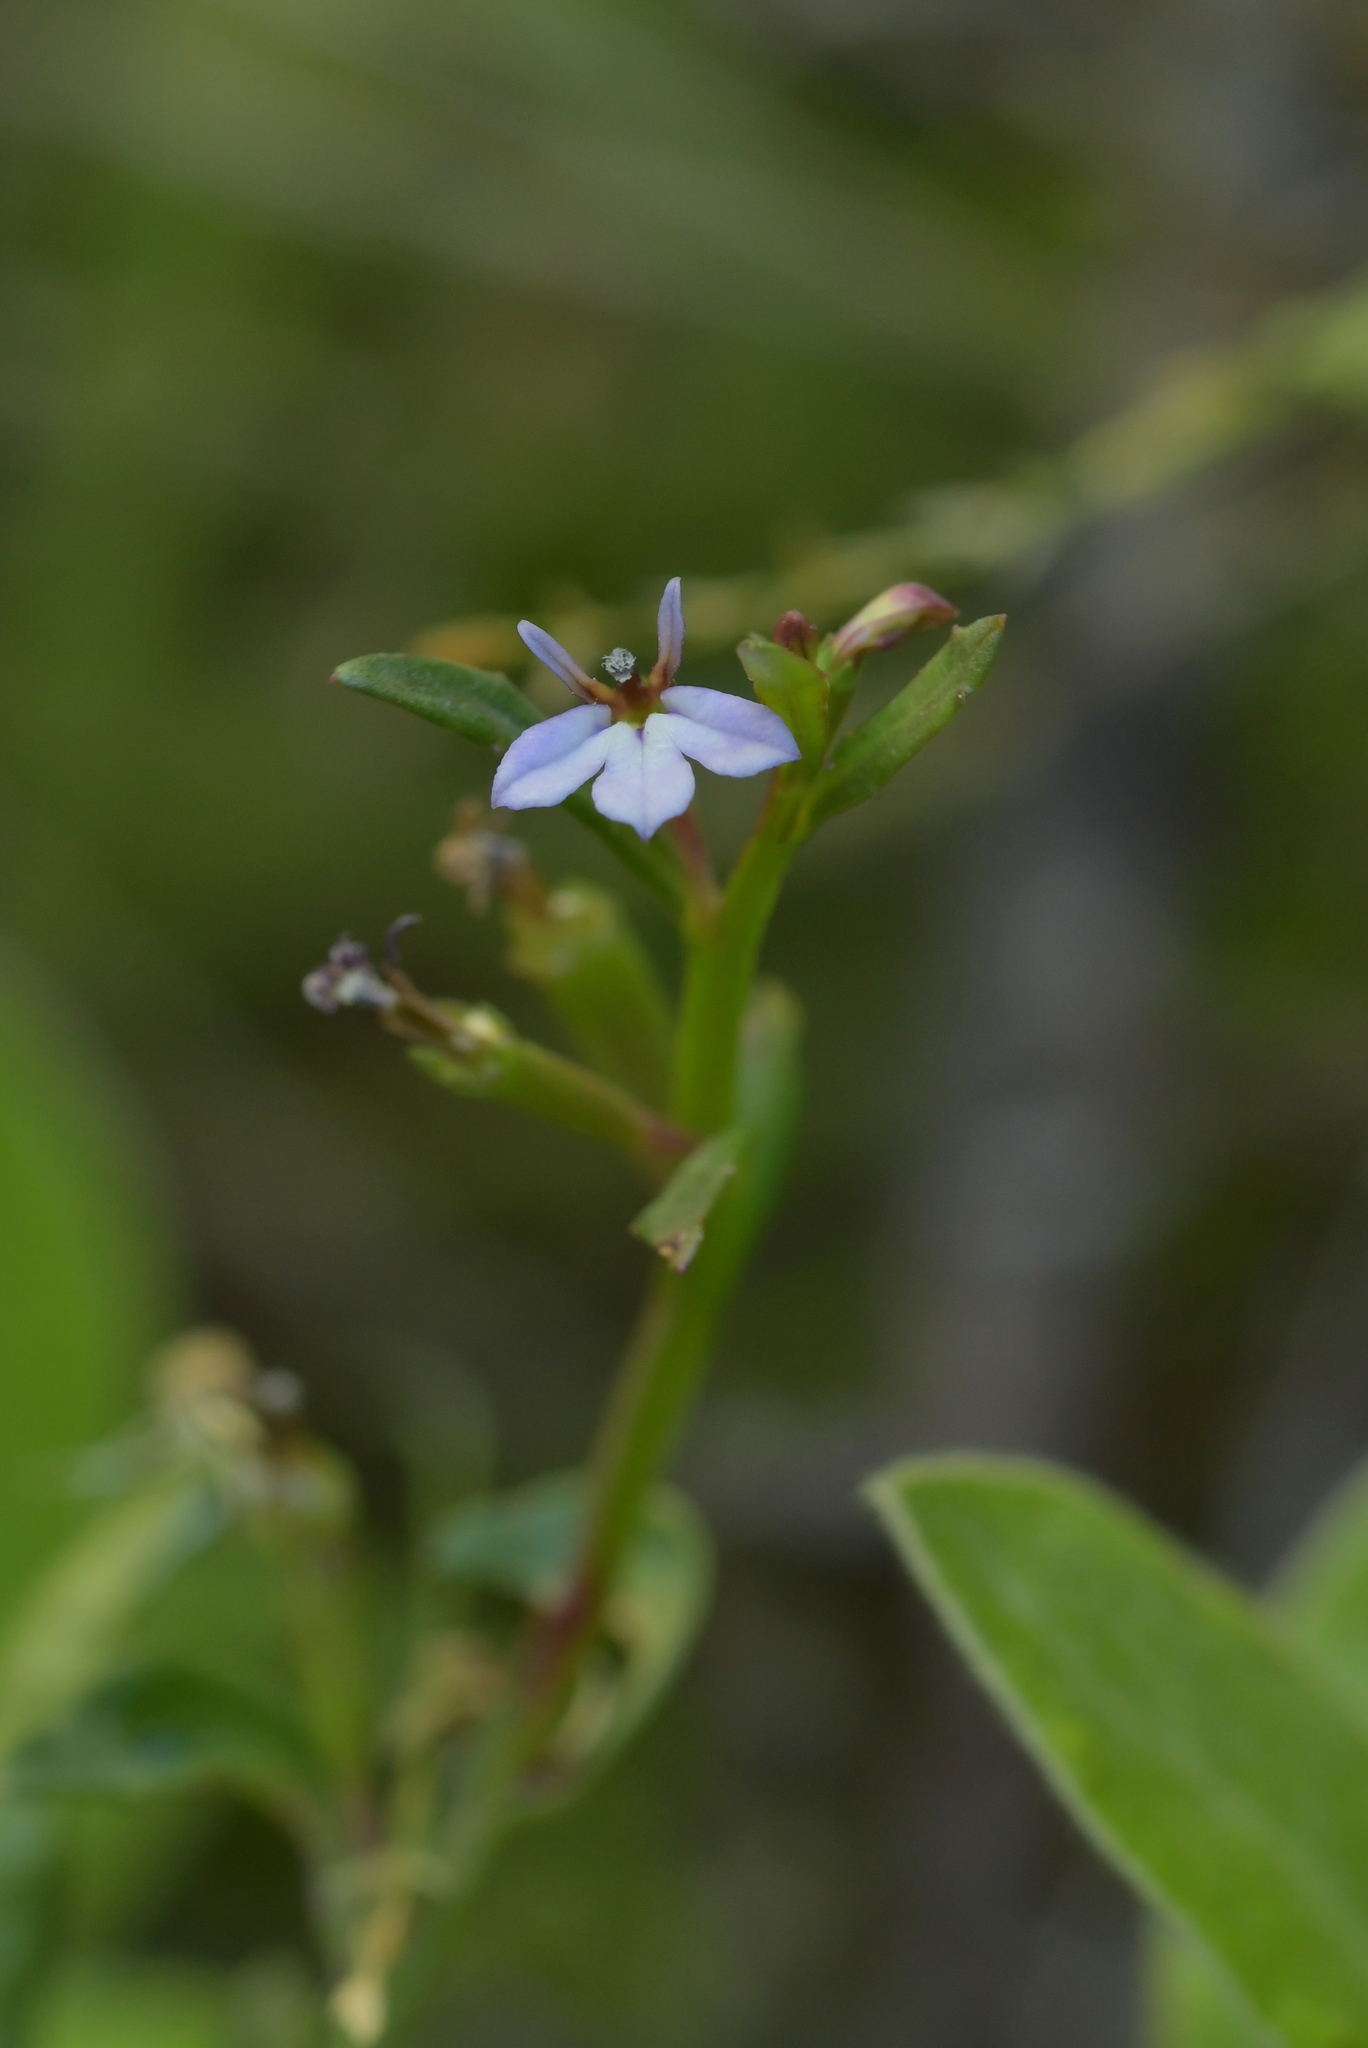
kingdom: Plantae
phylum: Tracheophyta
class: Magnoliopsida
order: Asterales
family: Campanulaceae
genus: Lobelia
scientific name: Lobelia anceps
